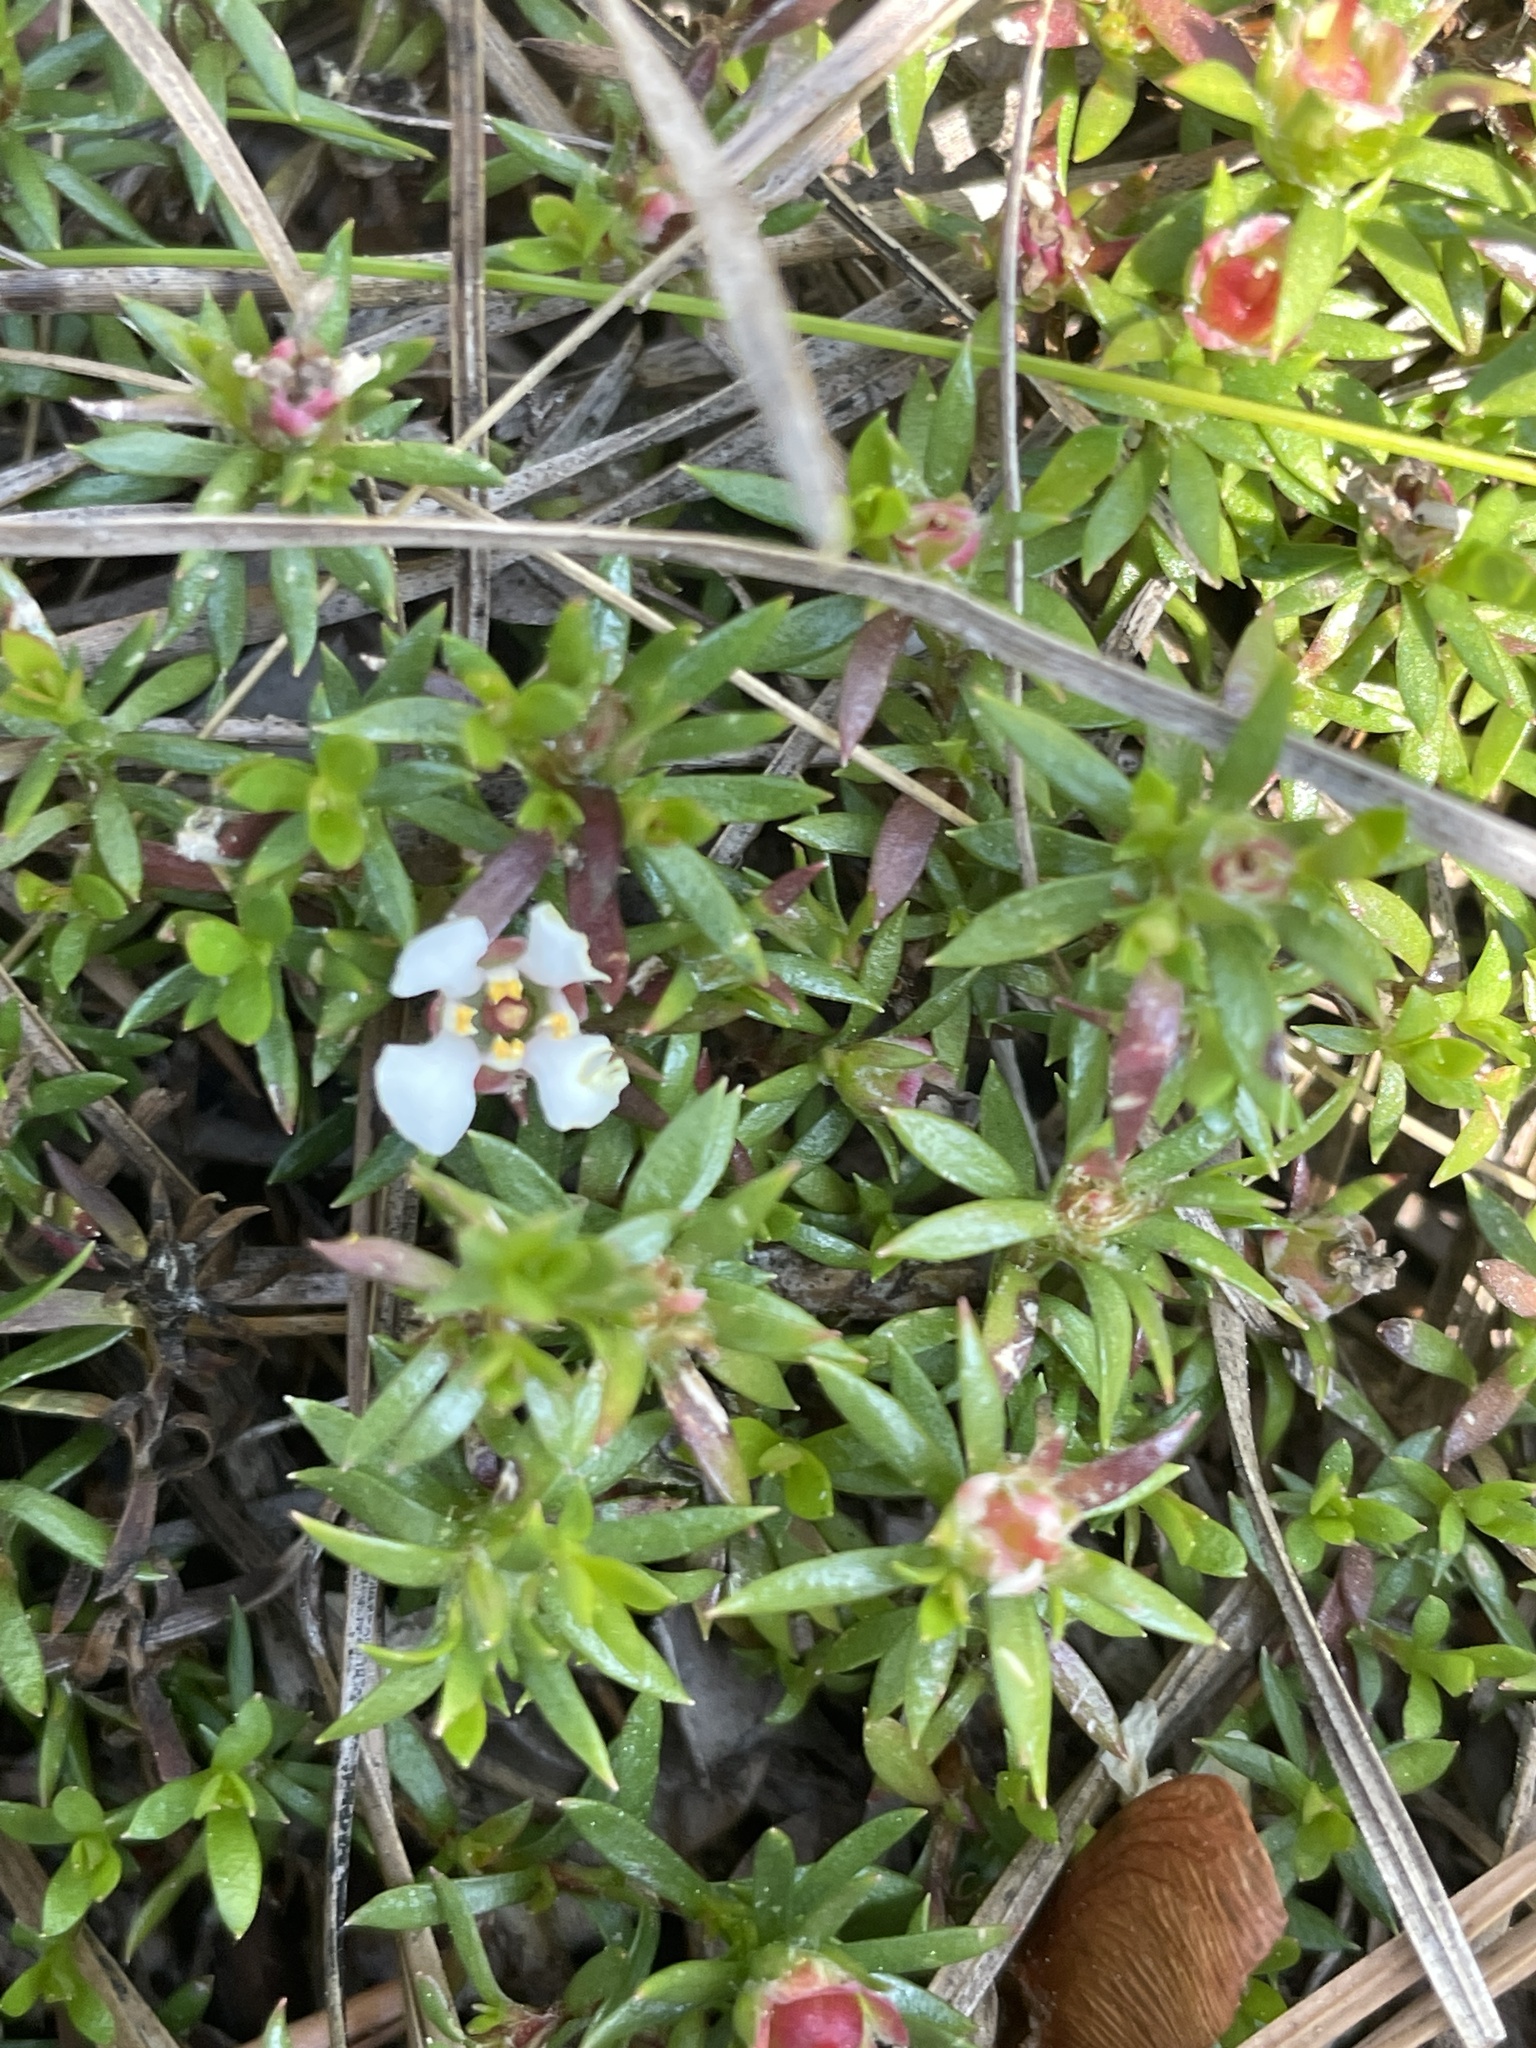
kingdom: Plantae
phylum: Tracheophyta
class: Magnoliopsida
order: Ericales
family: Diapensiaceae
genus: Pyxidanthera
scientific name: Pyxidanthera barbulata
